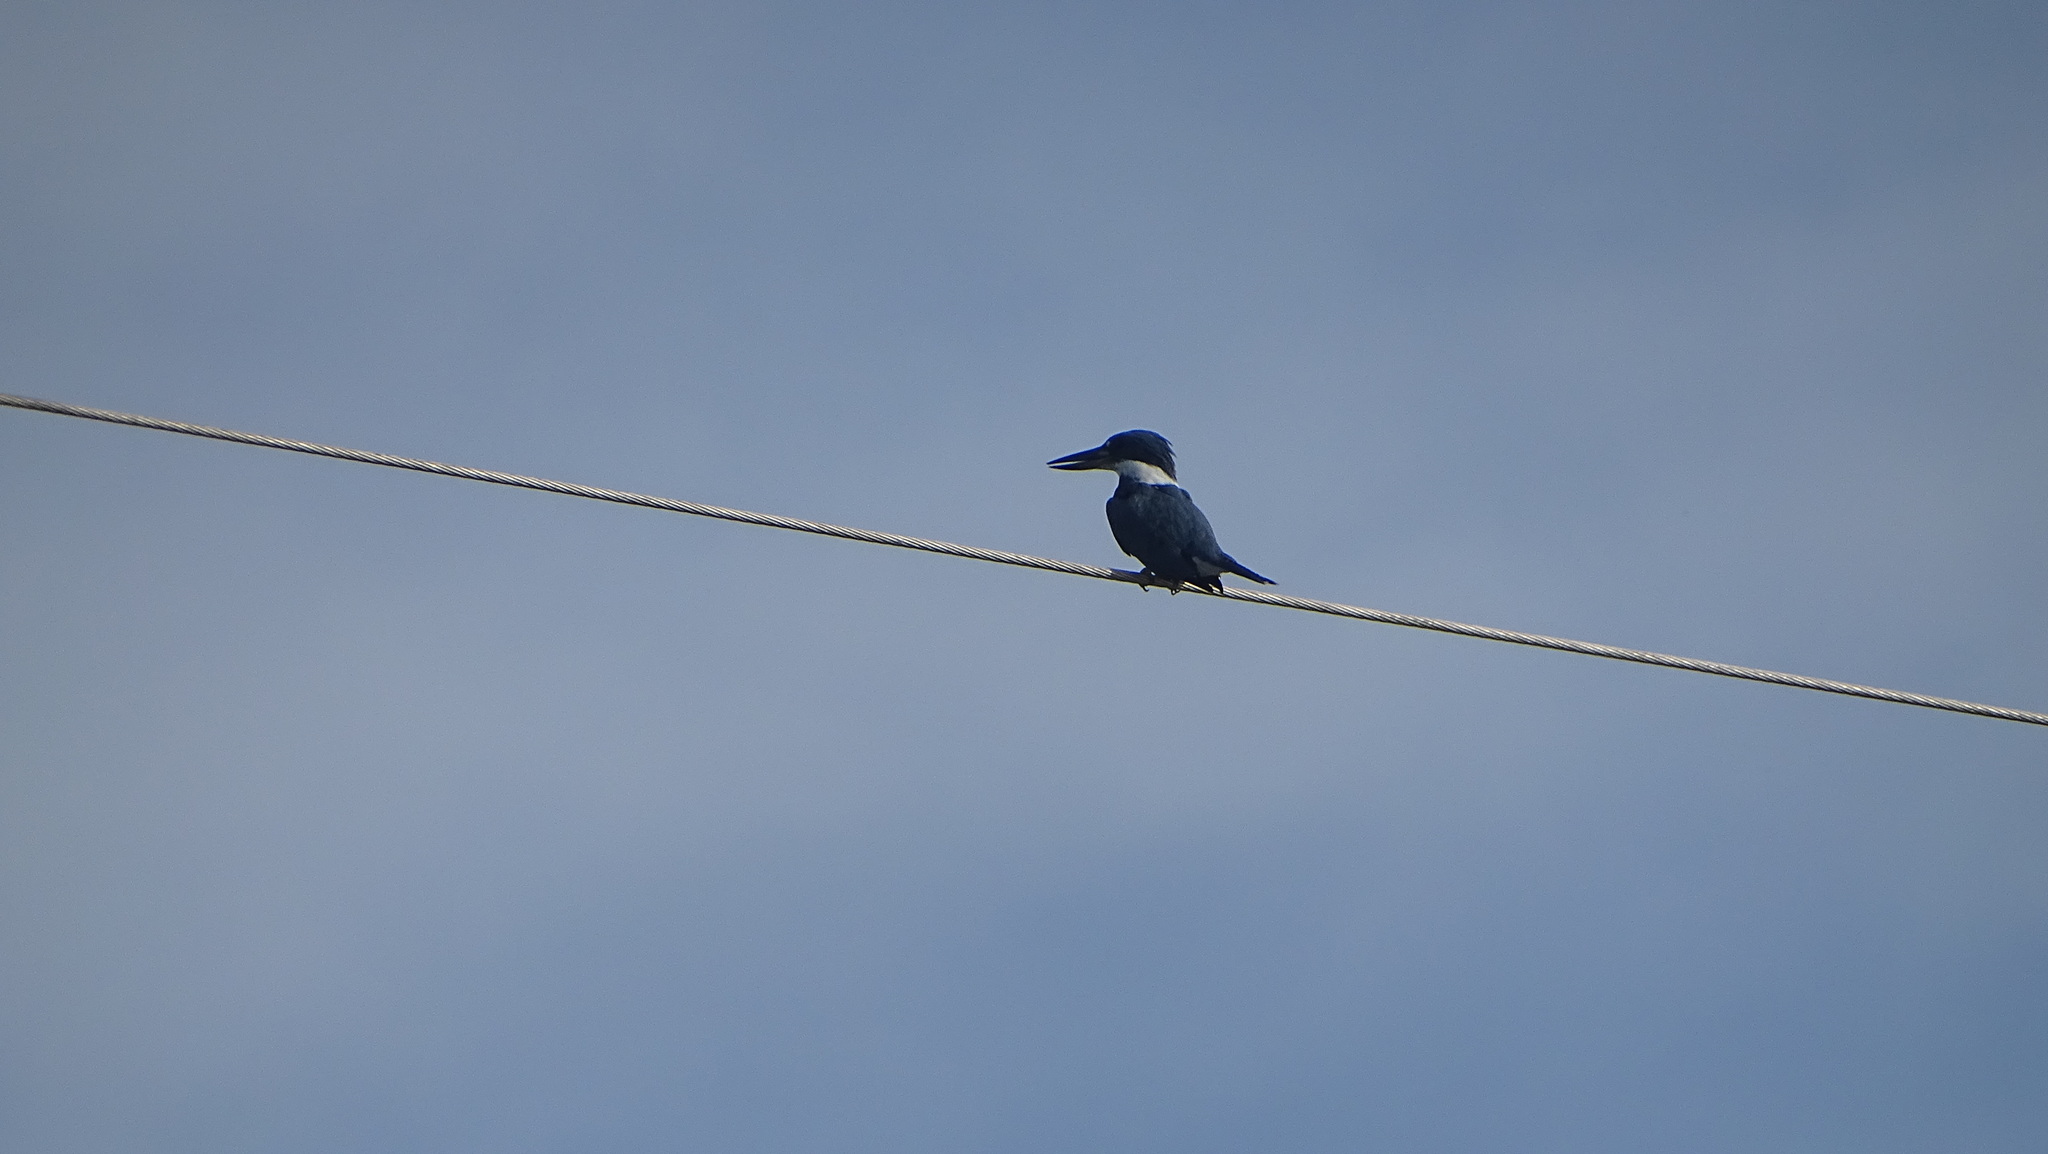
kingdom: Animalia
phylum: Chordata
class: Aves
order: Coraciiformes
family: Alcedinidae
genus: Megaceryle
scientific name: Megaceryle torquata
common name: Ringed kingfisher
